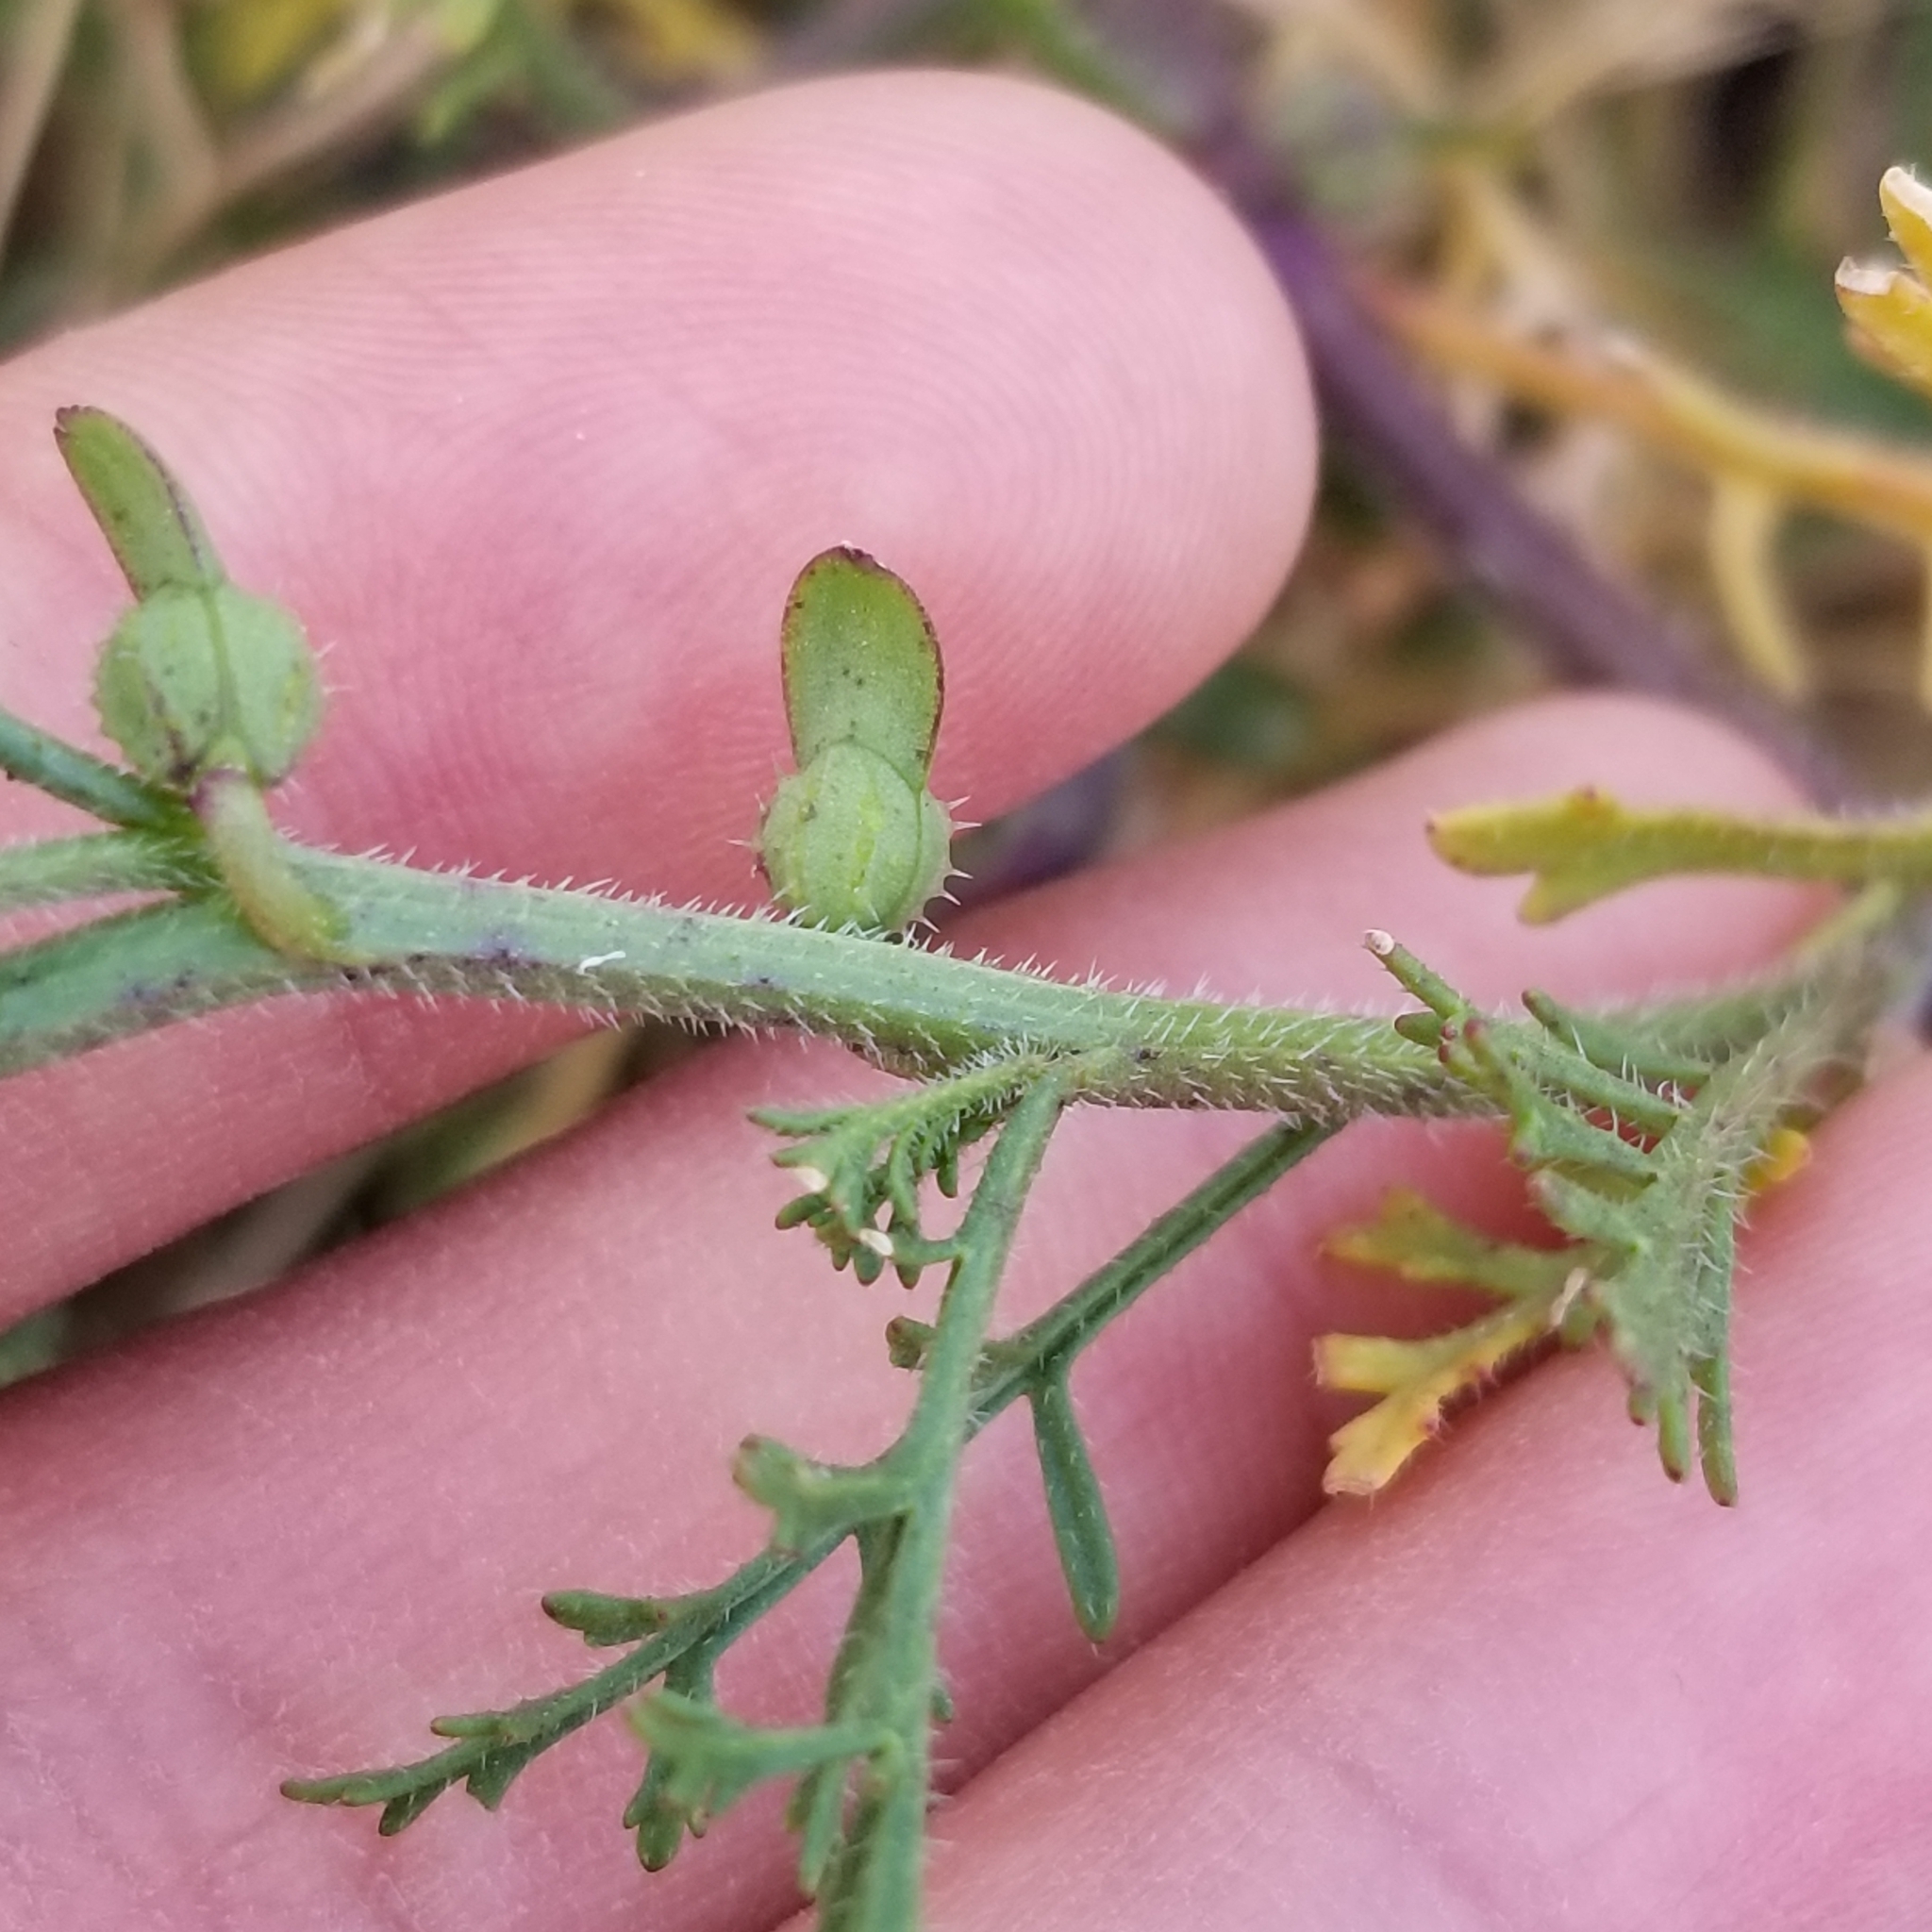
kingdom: Plantae
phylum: Tracheophyta
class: Magnoliopsida
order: Brassicales
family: Brassicaceae
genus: Carrichtera
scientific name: Carrichtera annua
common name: Cress rocket
